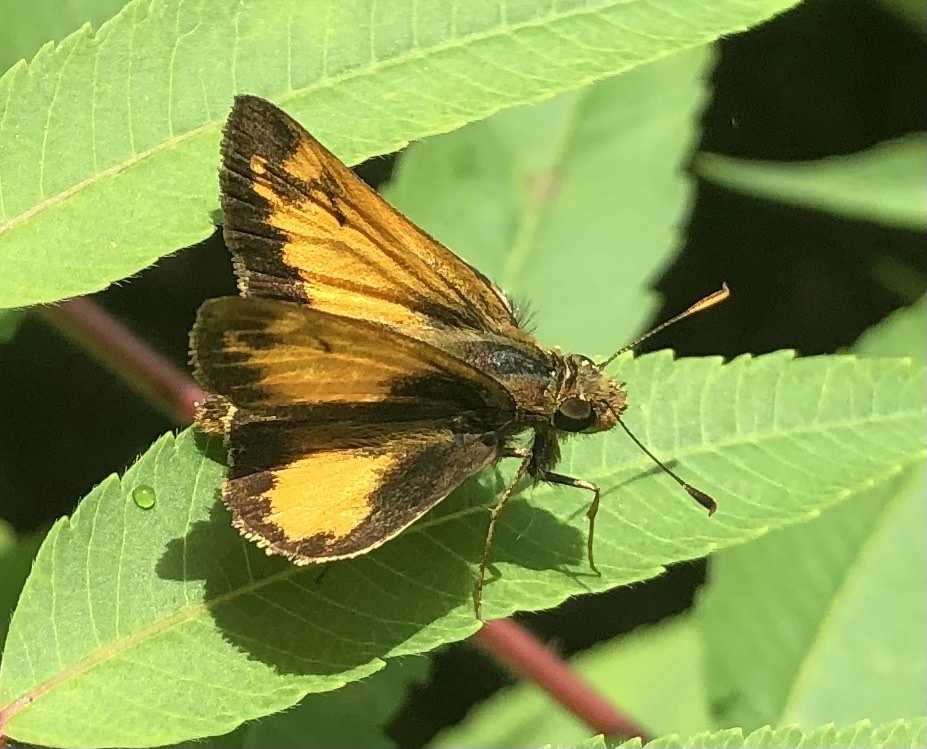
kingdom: Animalia
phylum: Arthropoda
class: Insecta
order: Lepidoptera
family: Hesperiidae
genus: Lon
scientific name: Lon zabulon
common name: Zabulon skipper
